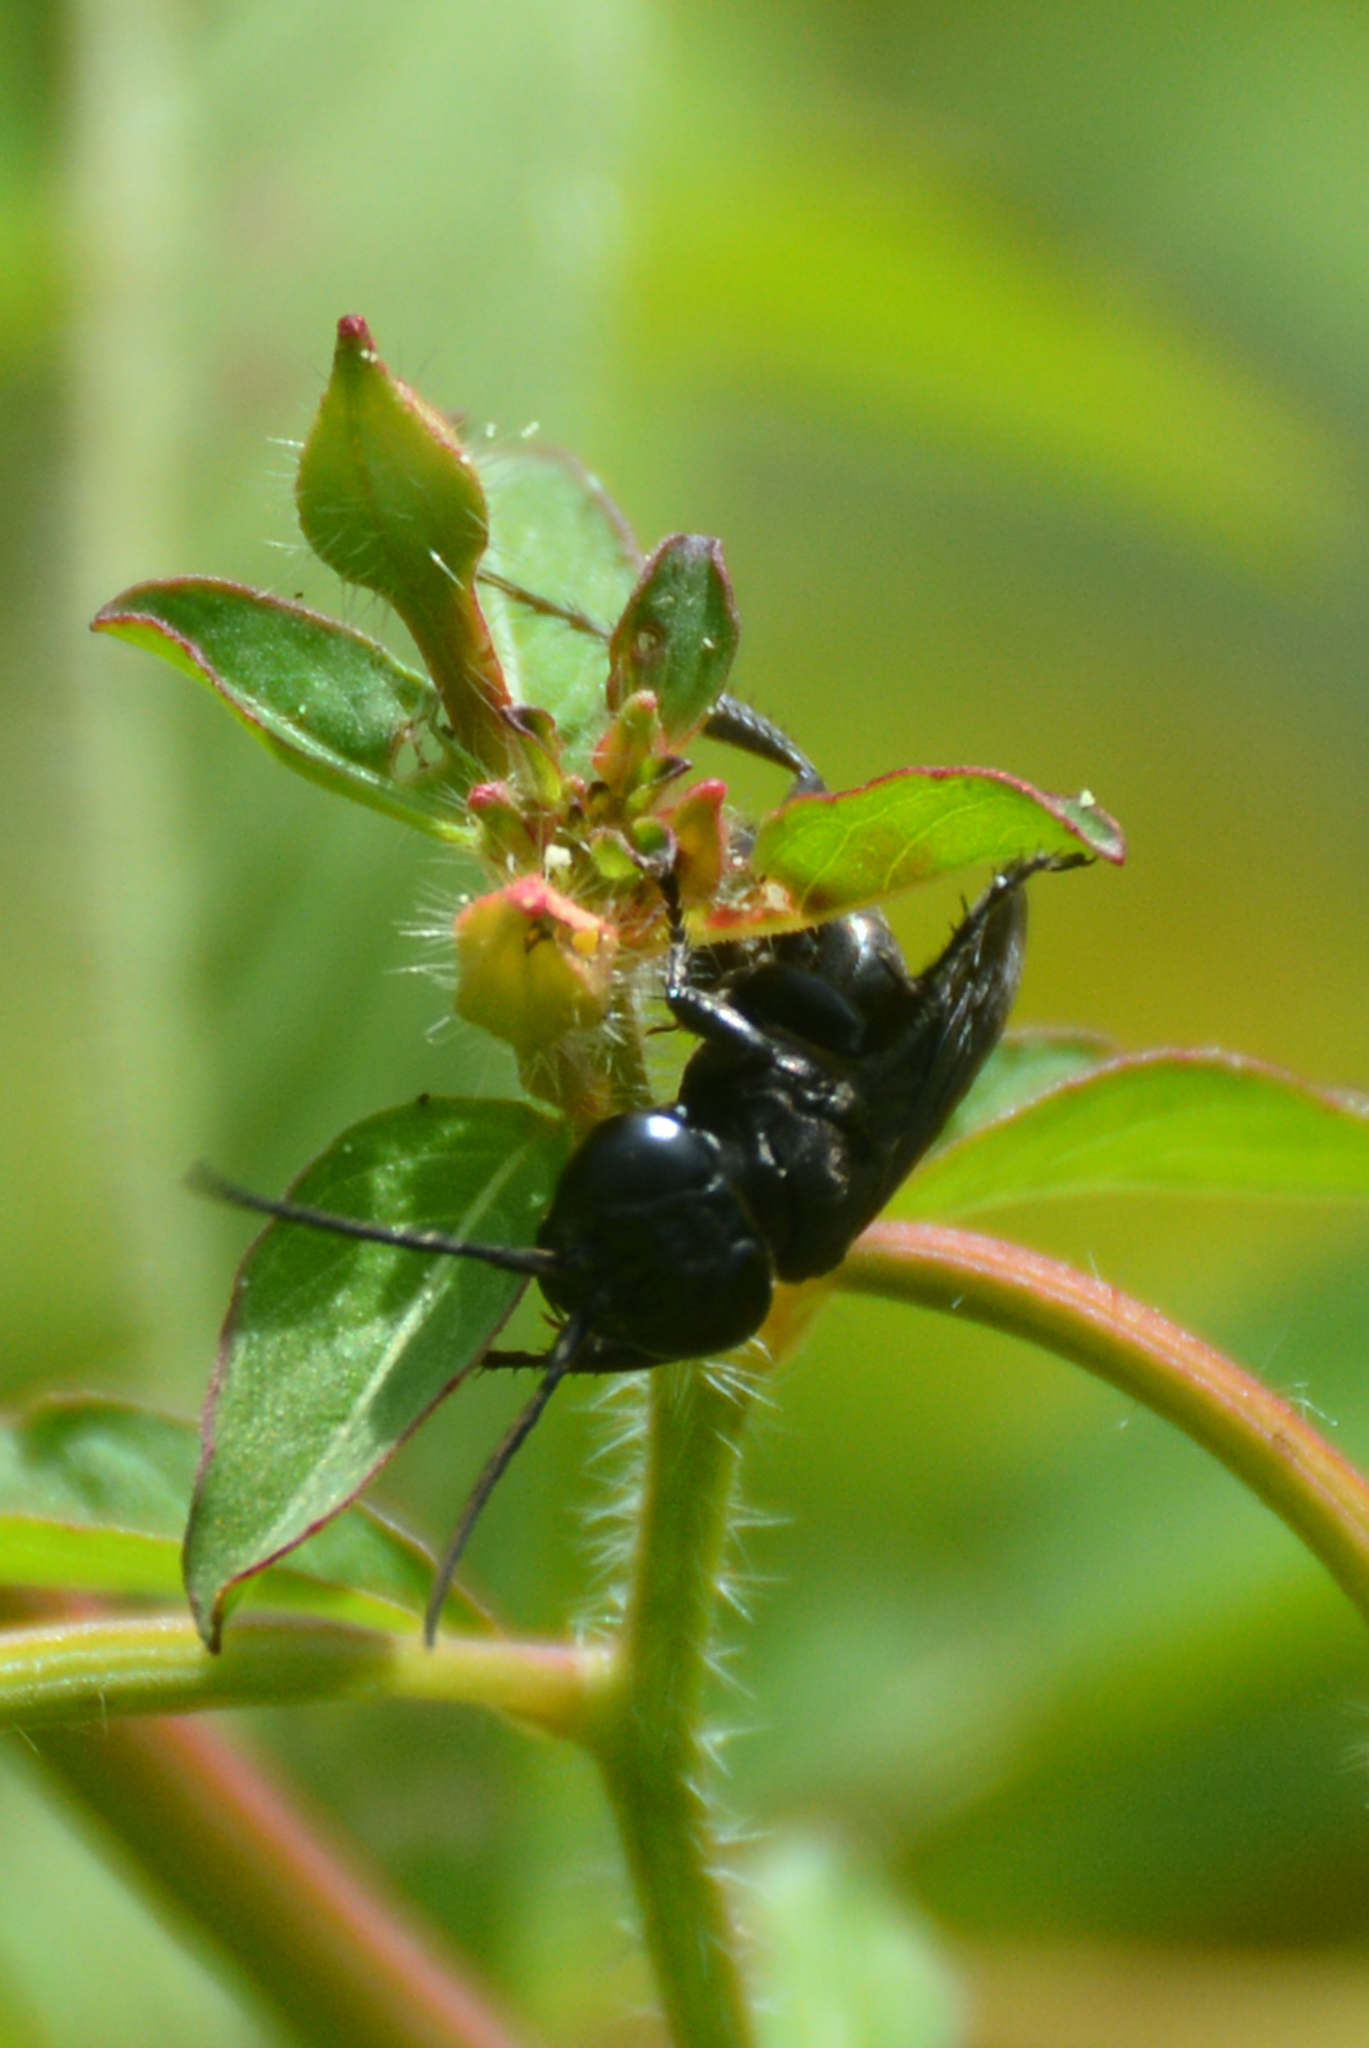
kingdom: Animalia
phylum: Arthropoda
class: Insecta
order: Hymenoptera
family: Crabronidae
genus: Larra
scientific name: Larra analis
